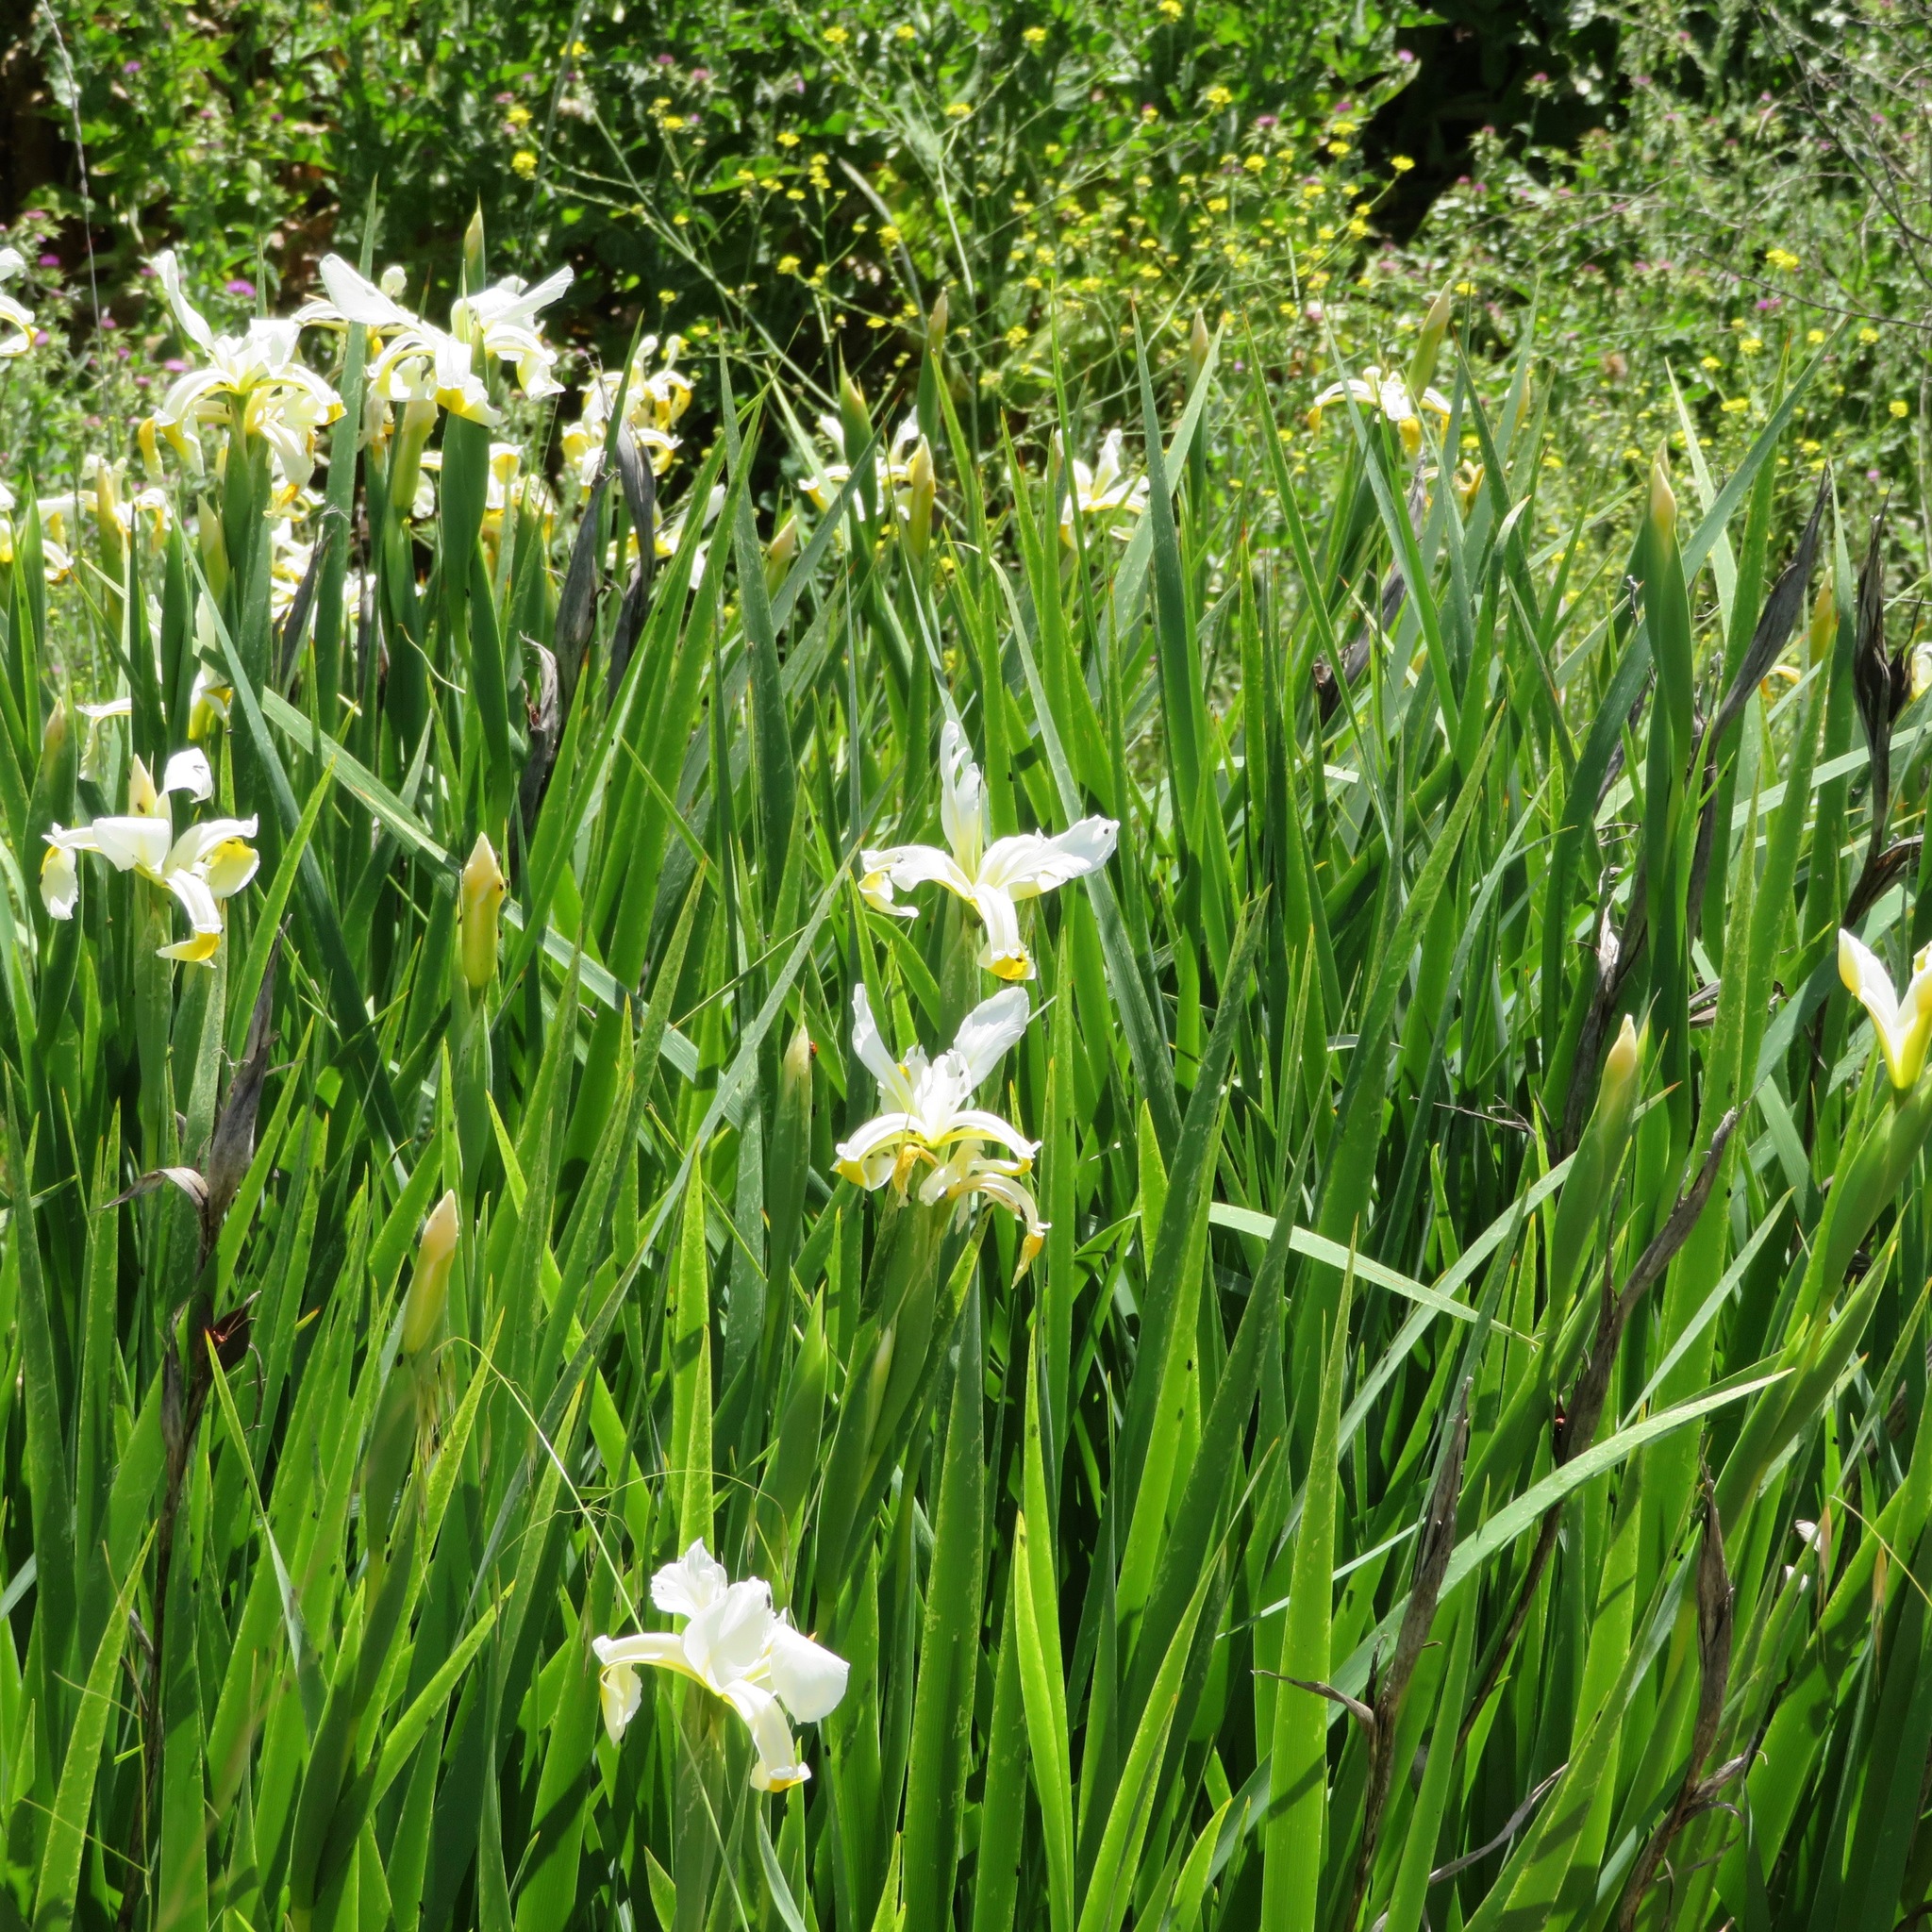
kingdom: Plantae
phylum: Tracheophyta
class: Liliopsida
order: Asparagales
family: Iridaceae
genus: Iris
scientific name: Iris orientalis
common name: Turkish iris
